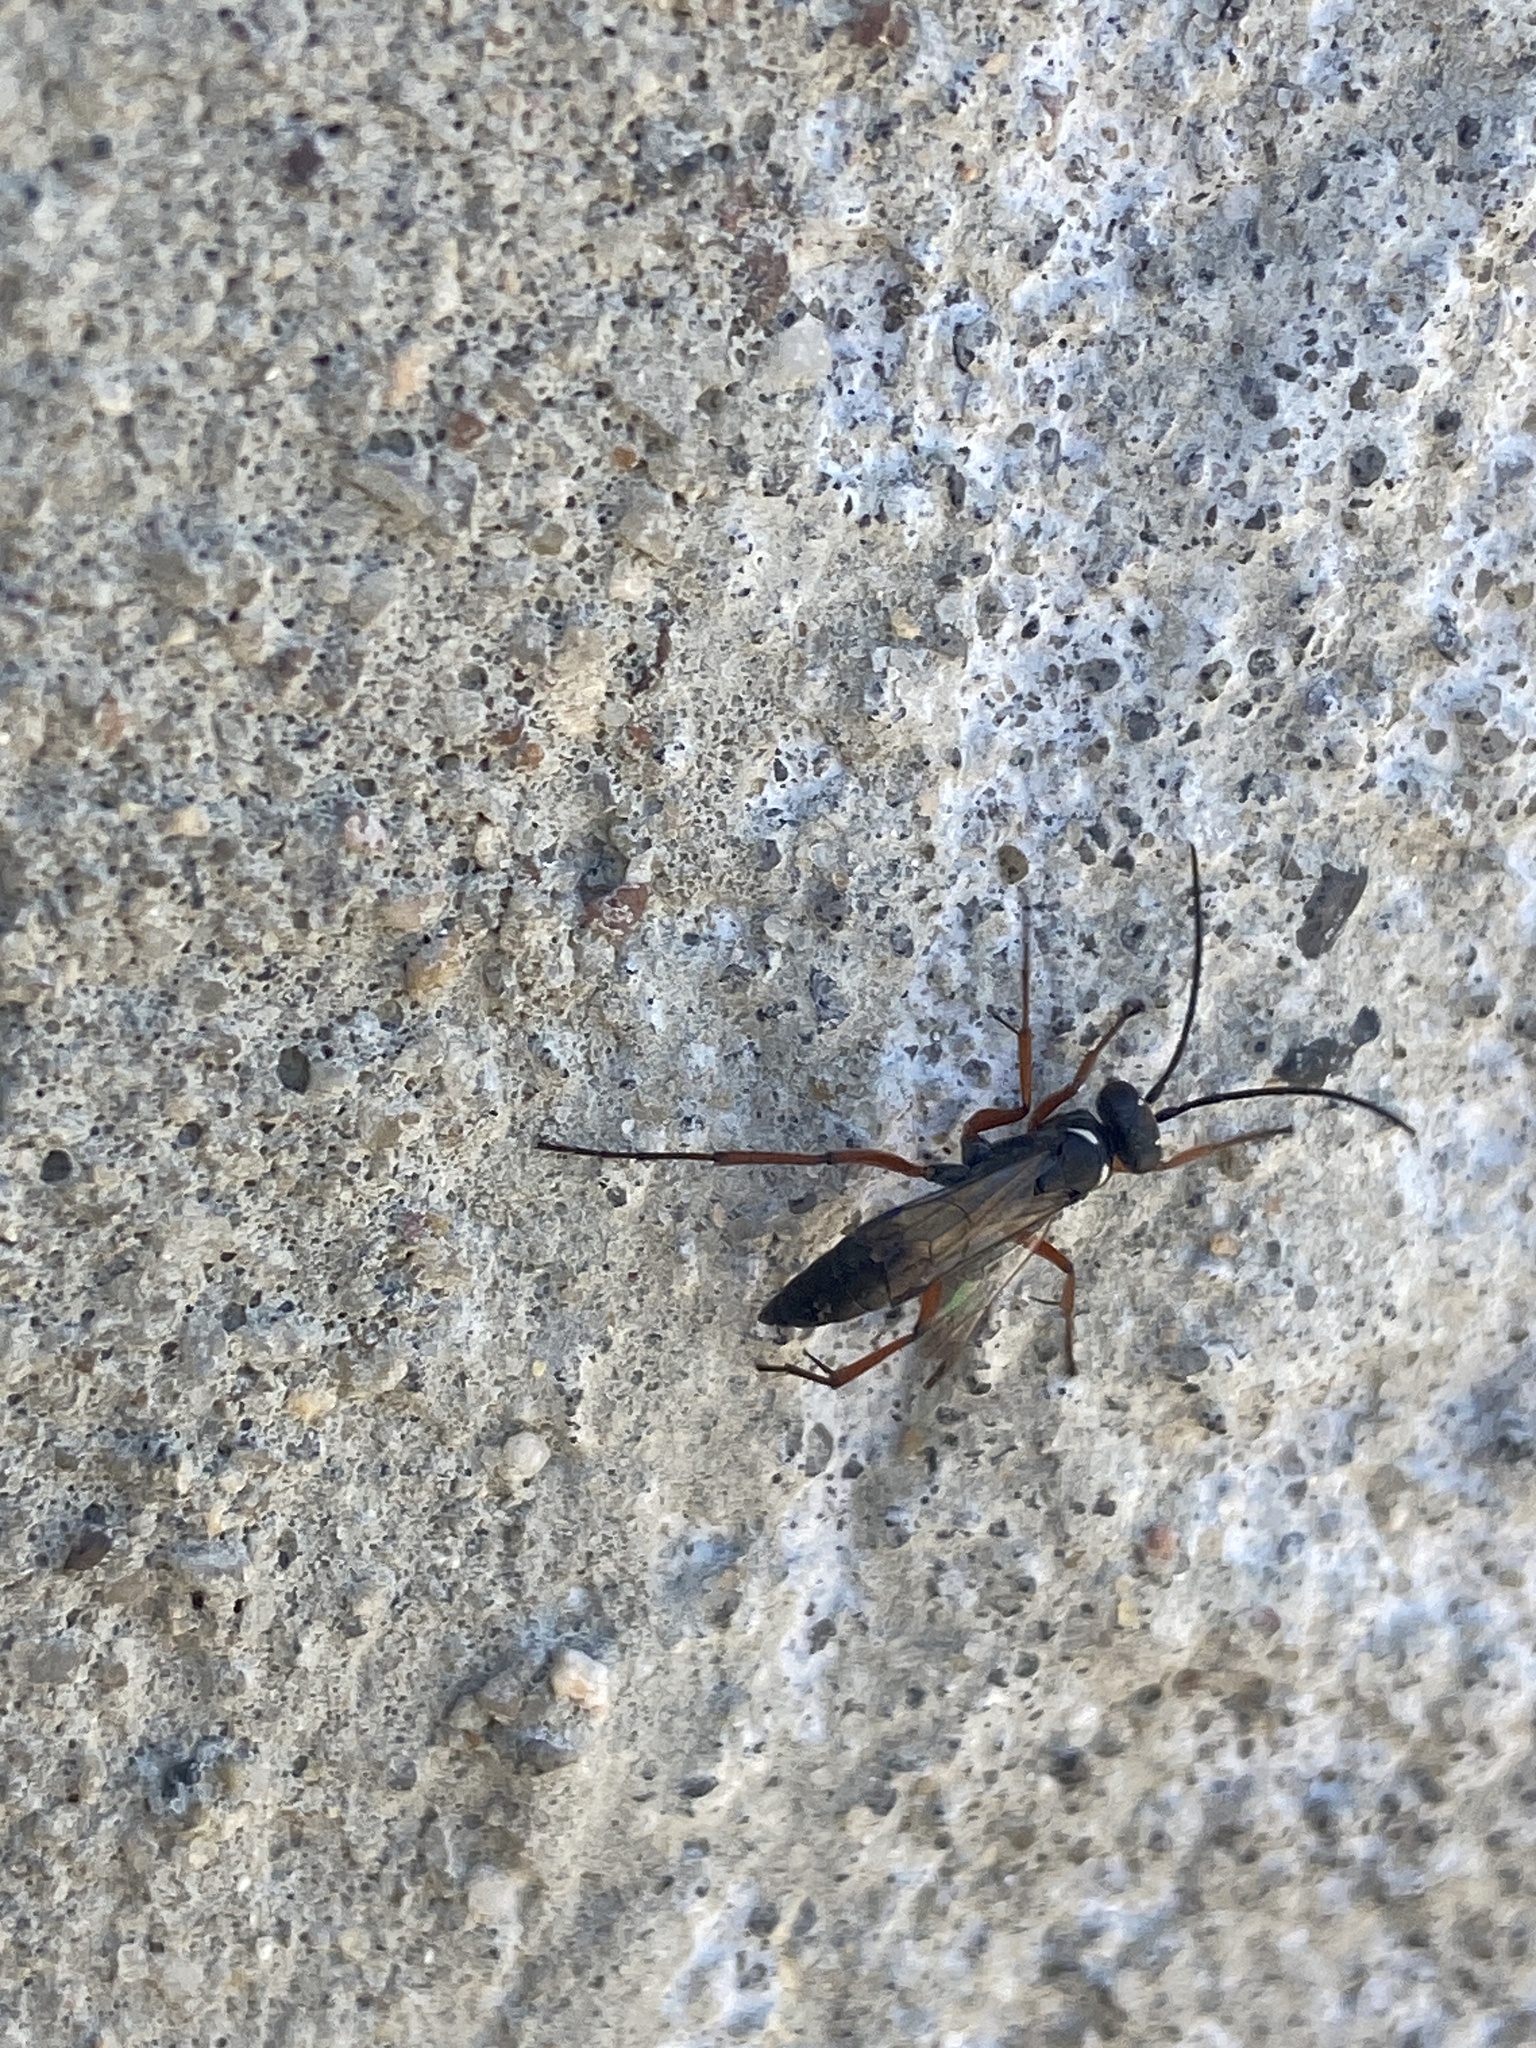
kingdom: Animalia
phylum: Arthropoda
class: Insecta
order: Hymenoptera
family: Pompilidae
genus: Agenioideus
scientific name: Agenioideus cinctellus
